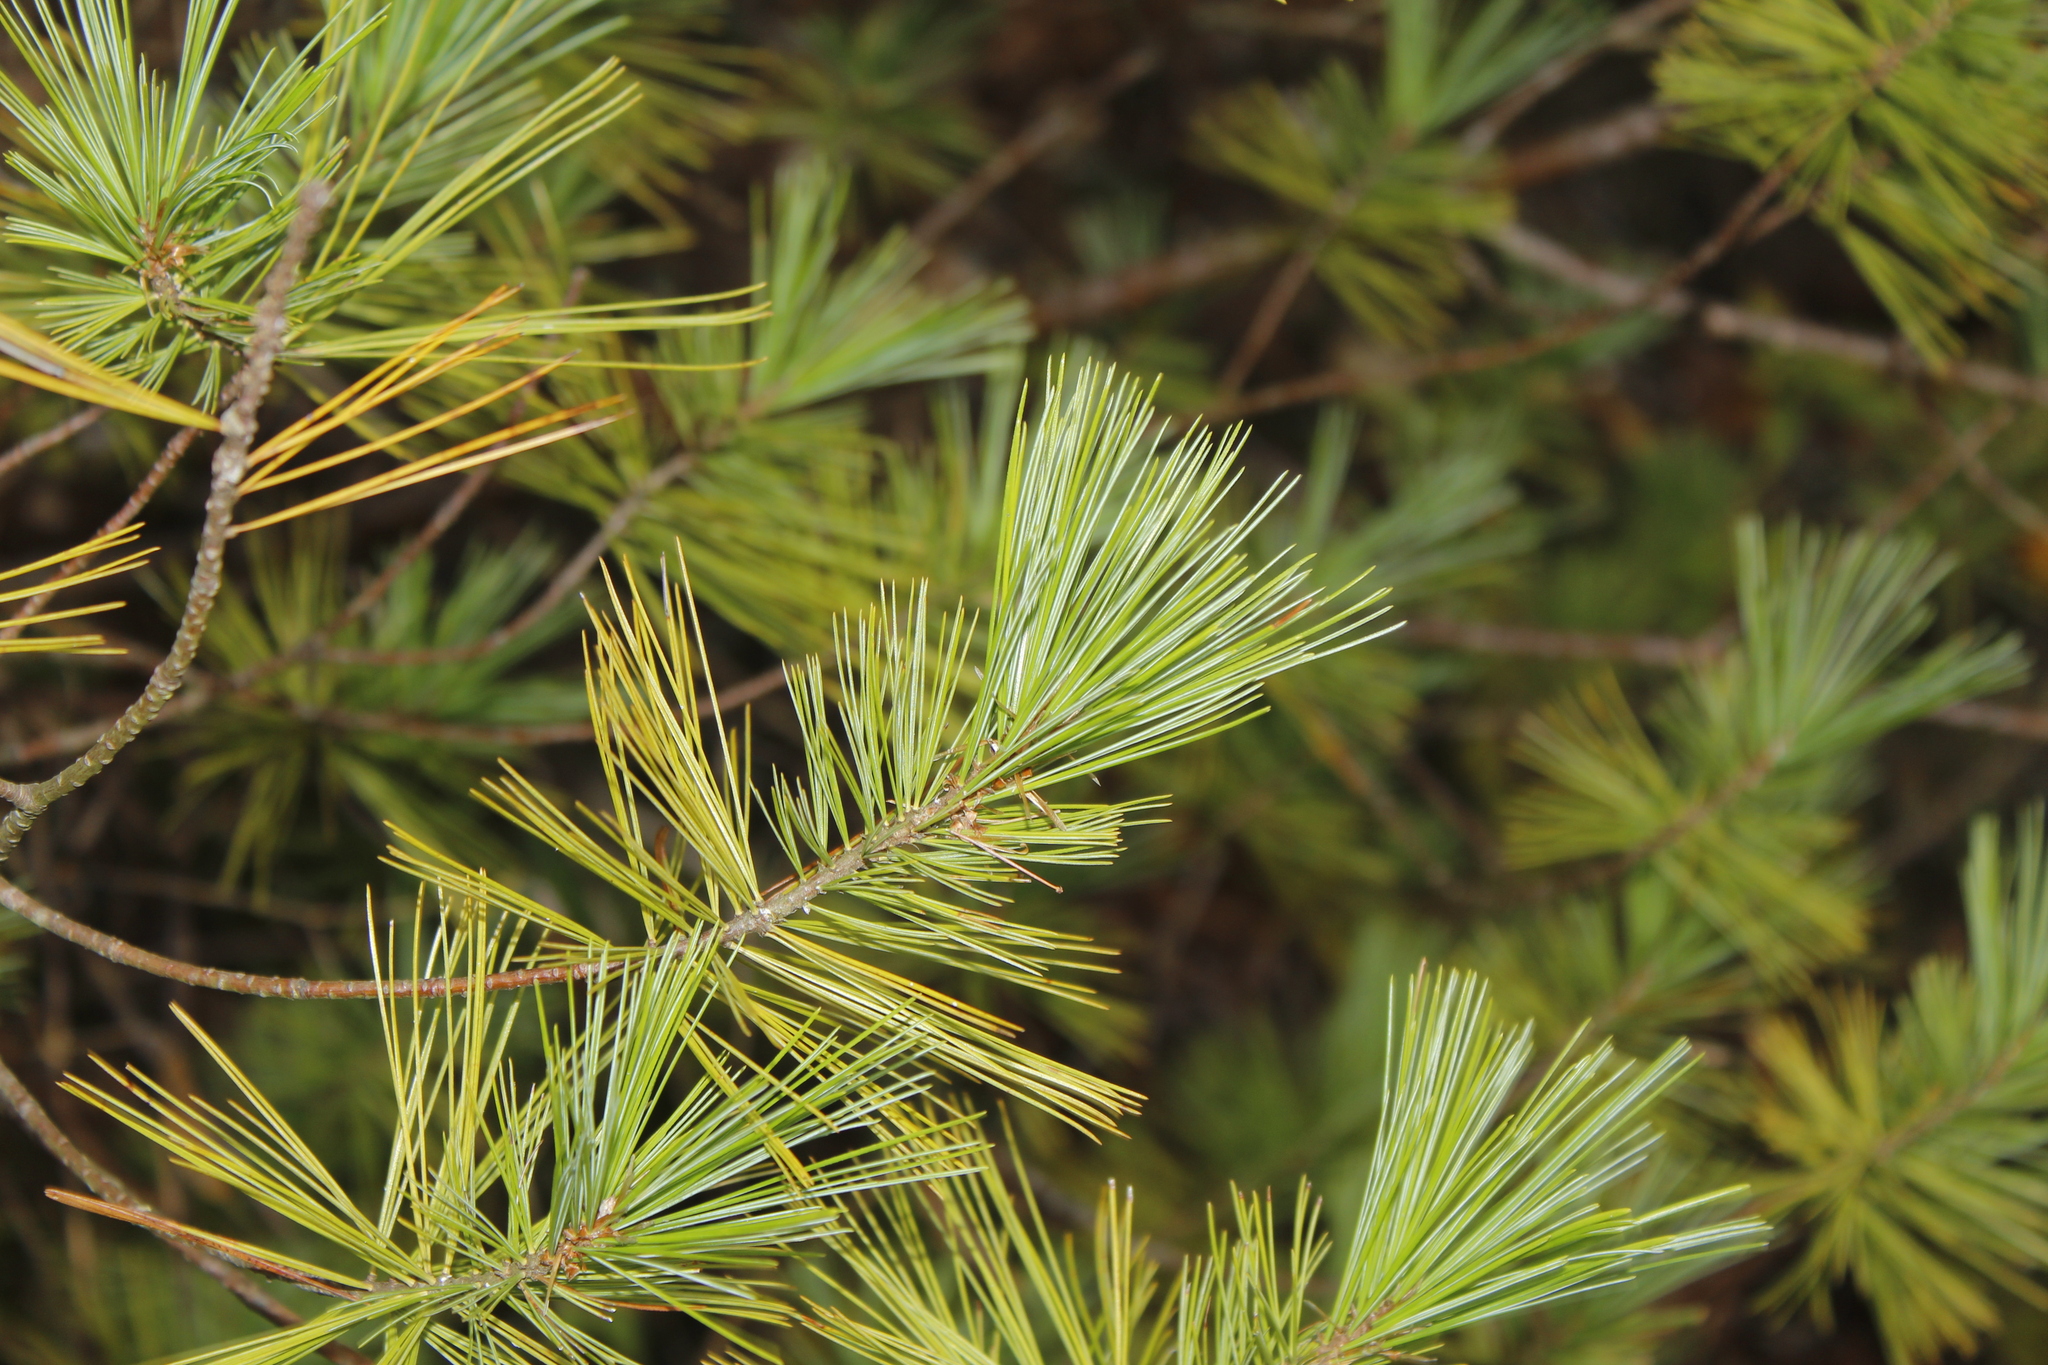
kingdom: Plantae
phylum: Tracheophyta
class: Pinopsida
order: Pinales
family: Pinaceae
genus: Pinus
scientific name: Pinus strobus
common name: Weymouth pine
